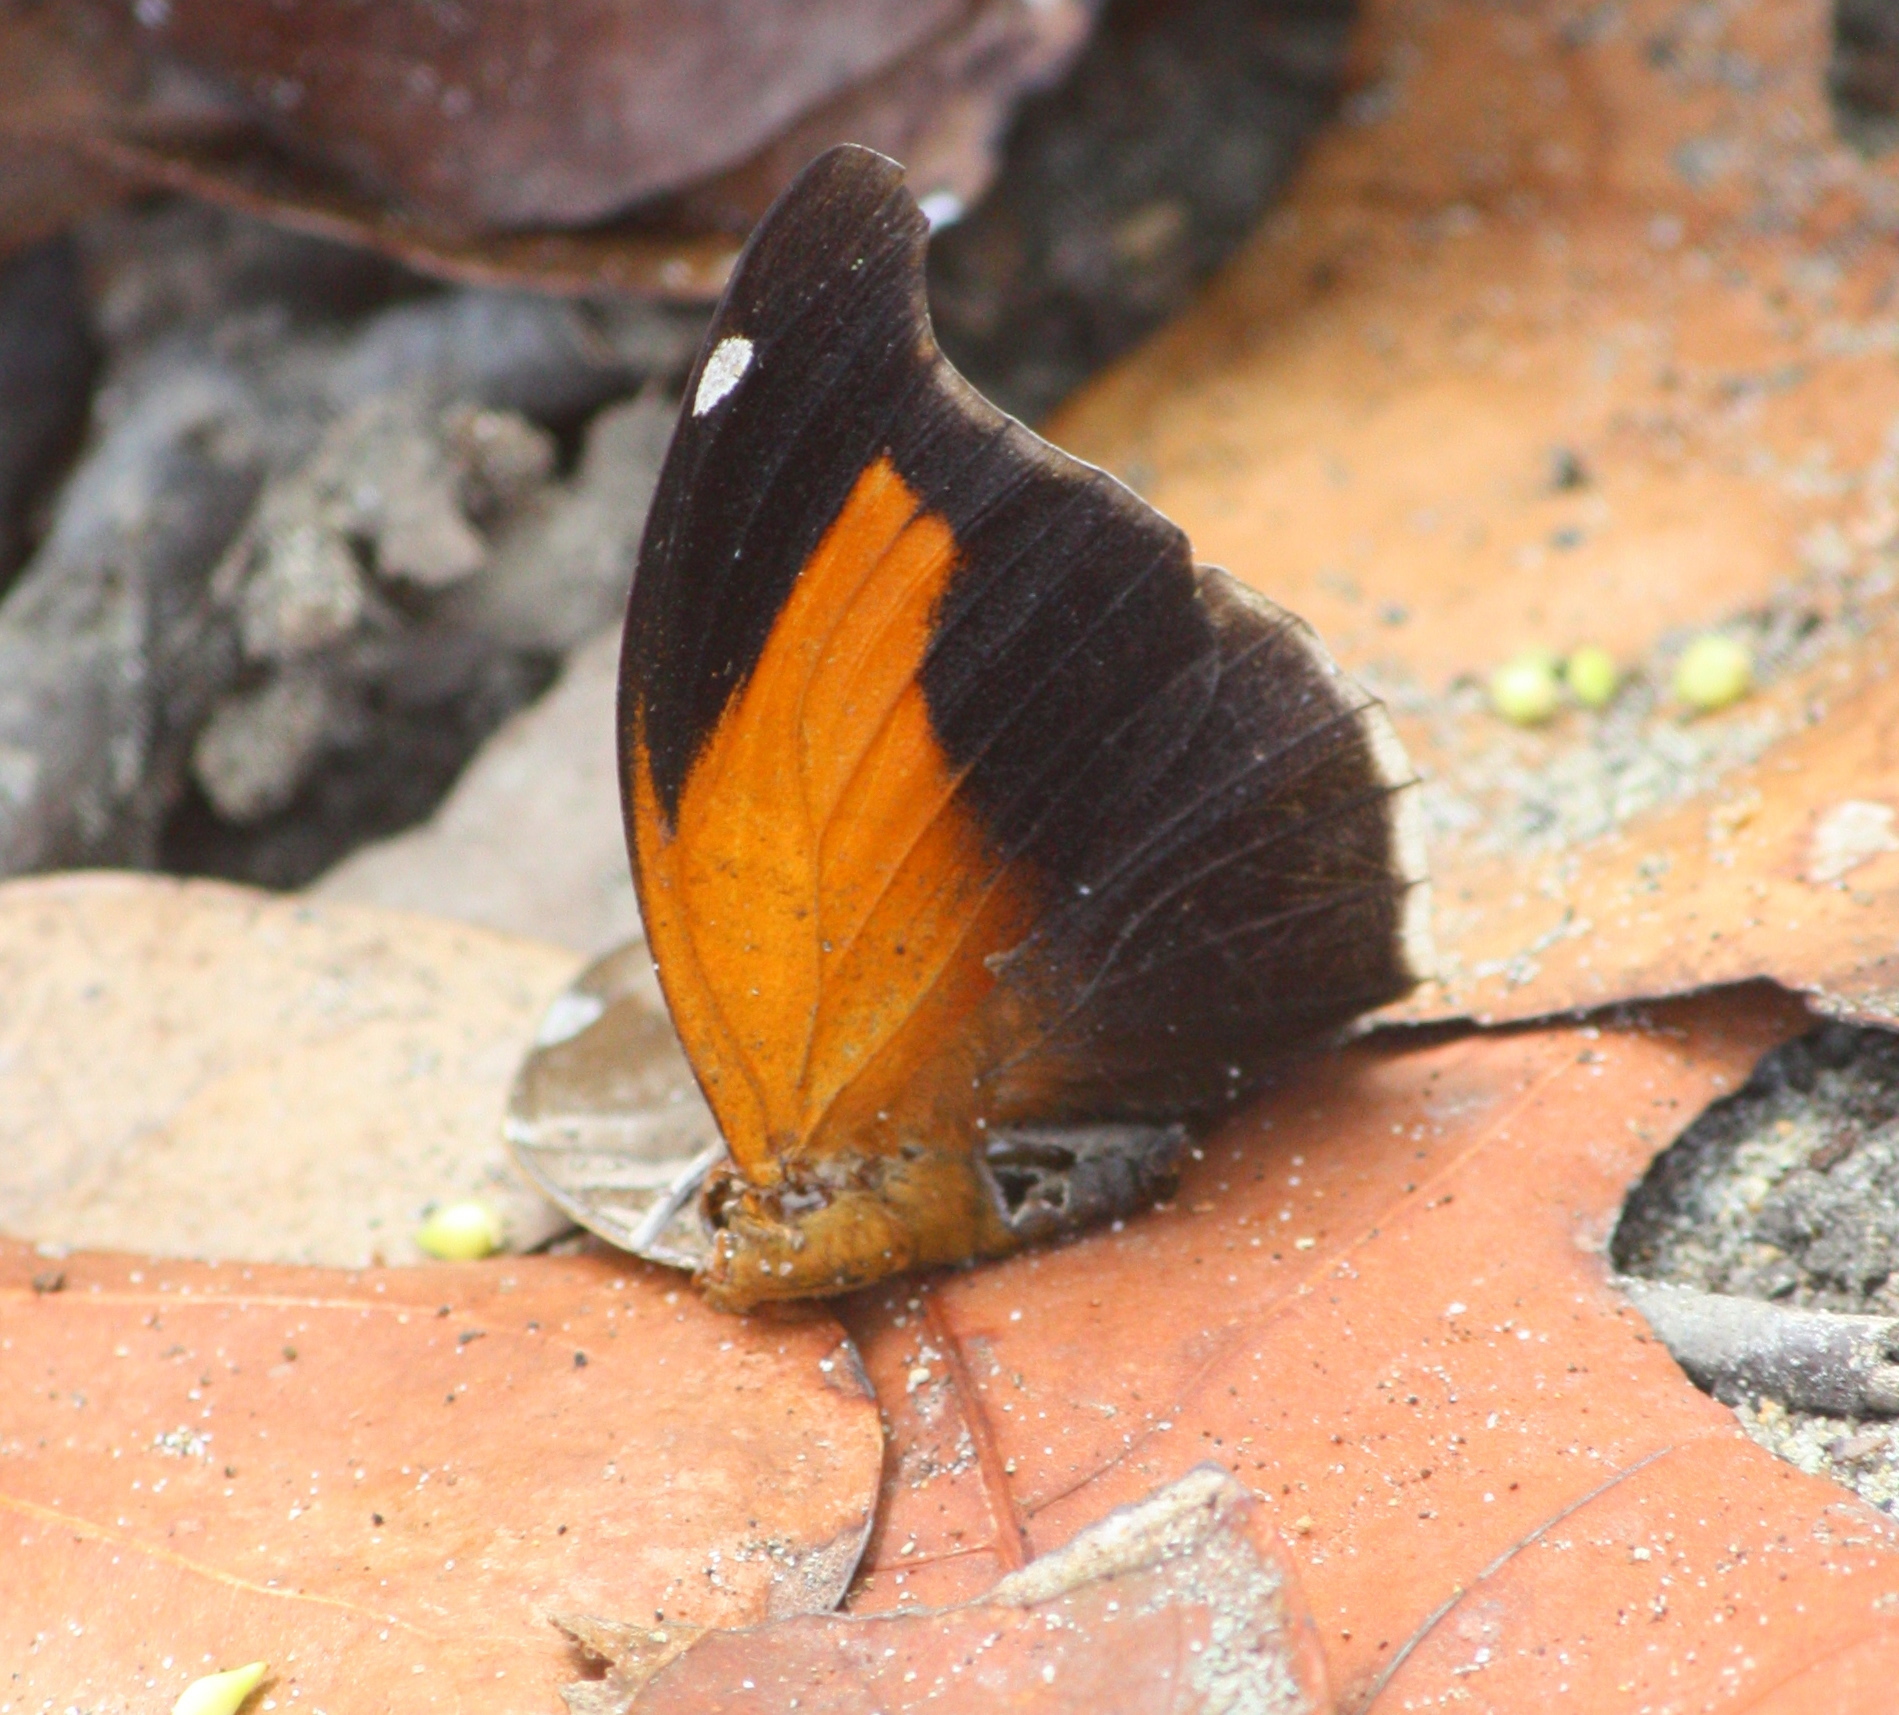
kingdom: Animalia
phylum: Arthropoda
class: Insecta
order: Lepidoptera
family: Nymphalidae
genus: Historis
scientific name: Historis odius
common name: Orion cecropian
